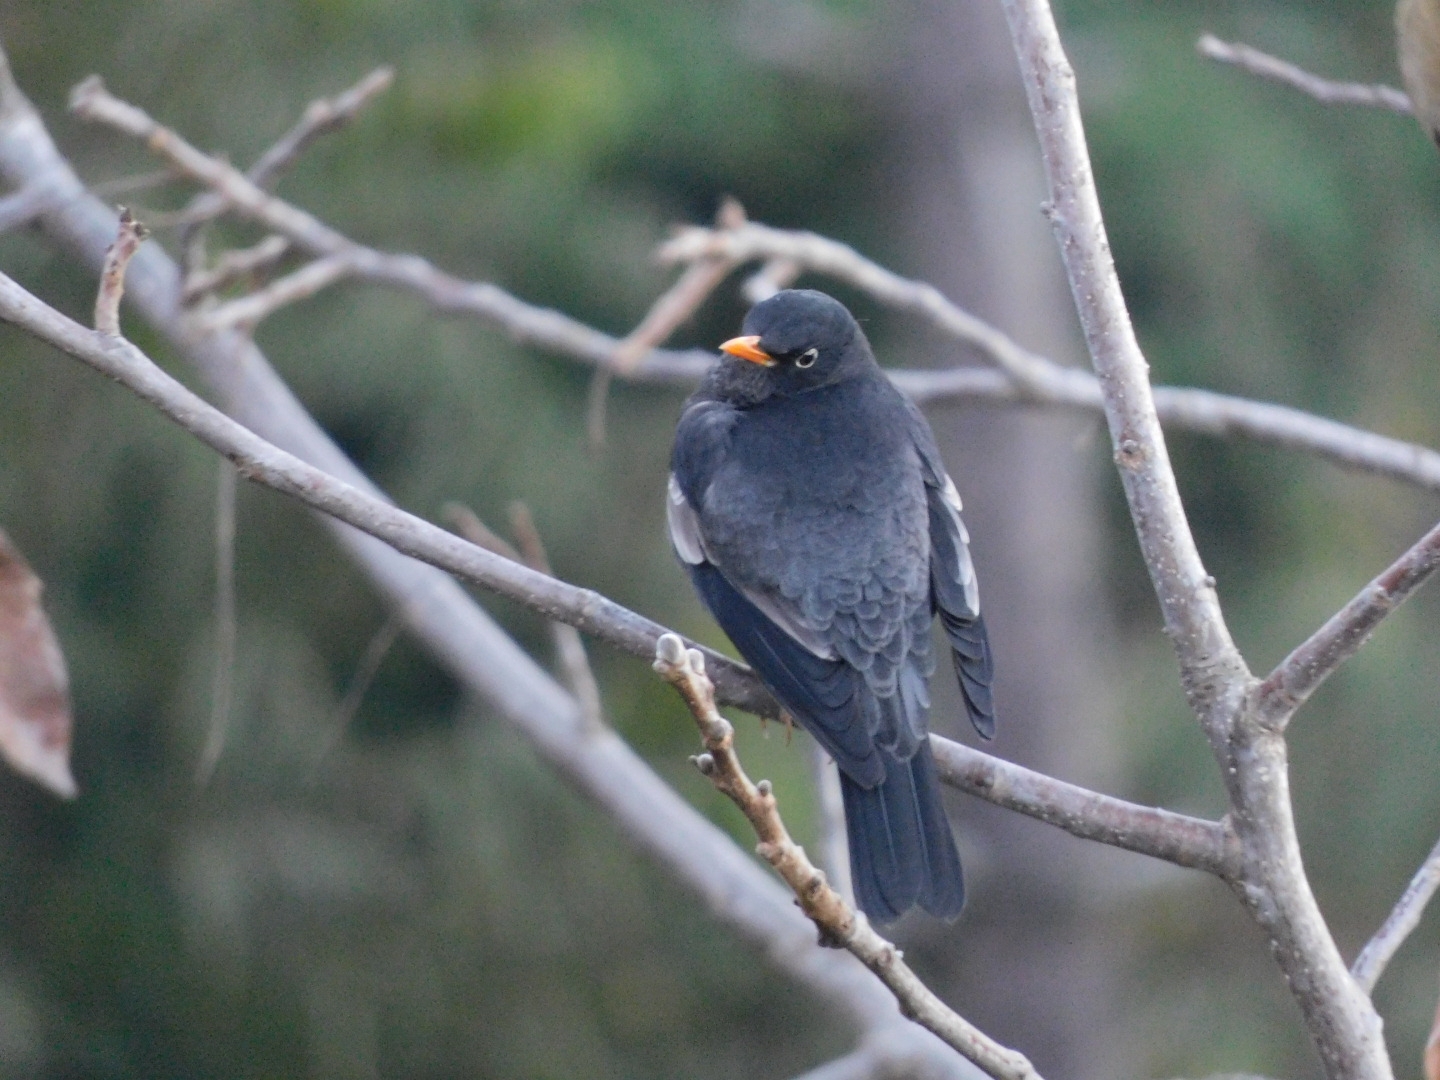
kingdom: Animalia
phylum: Chordata
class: Aves
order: Passeriformes
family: Turdidae
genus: Turdus
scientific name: Turdus boulboul
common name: Grey-winged blackbird
